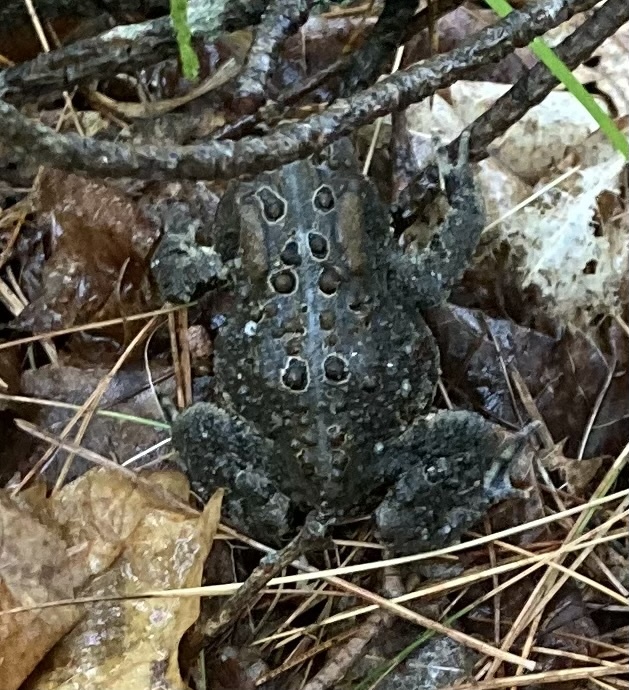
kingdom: Animalia
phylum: Chordata
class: Amphibia
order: Anura
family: Bufonidae
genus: Anaxyrus
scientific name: Anaxyrus americanus
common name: American toad
